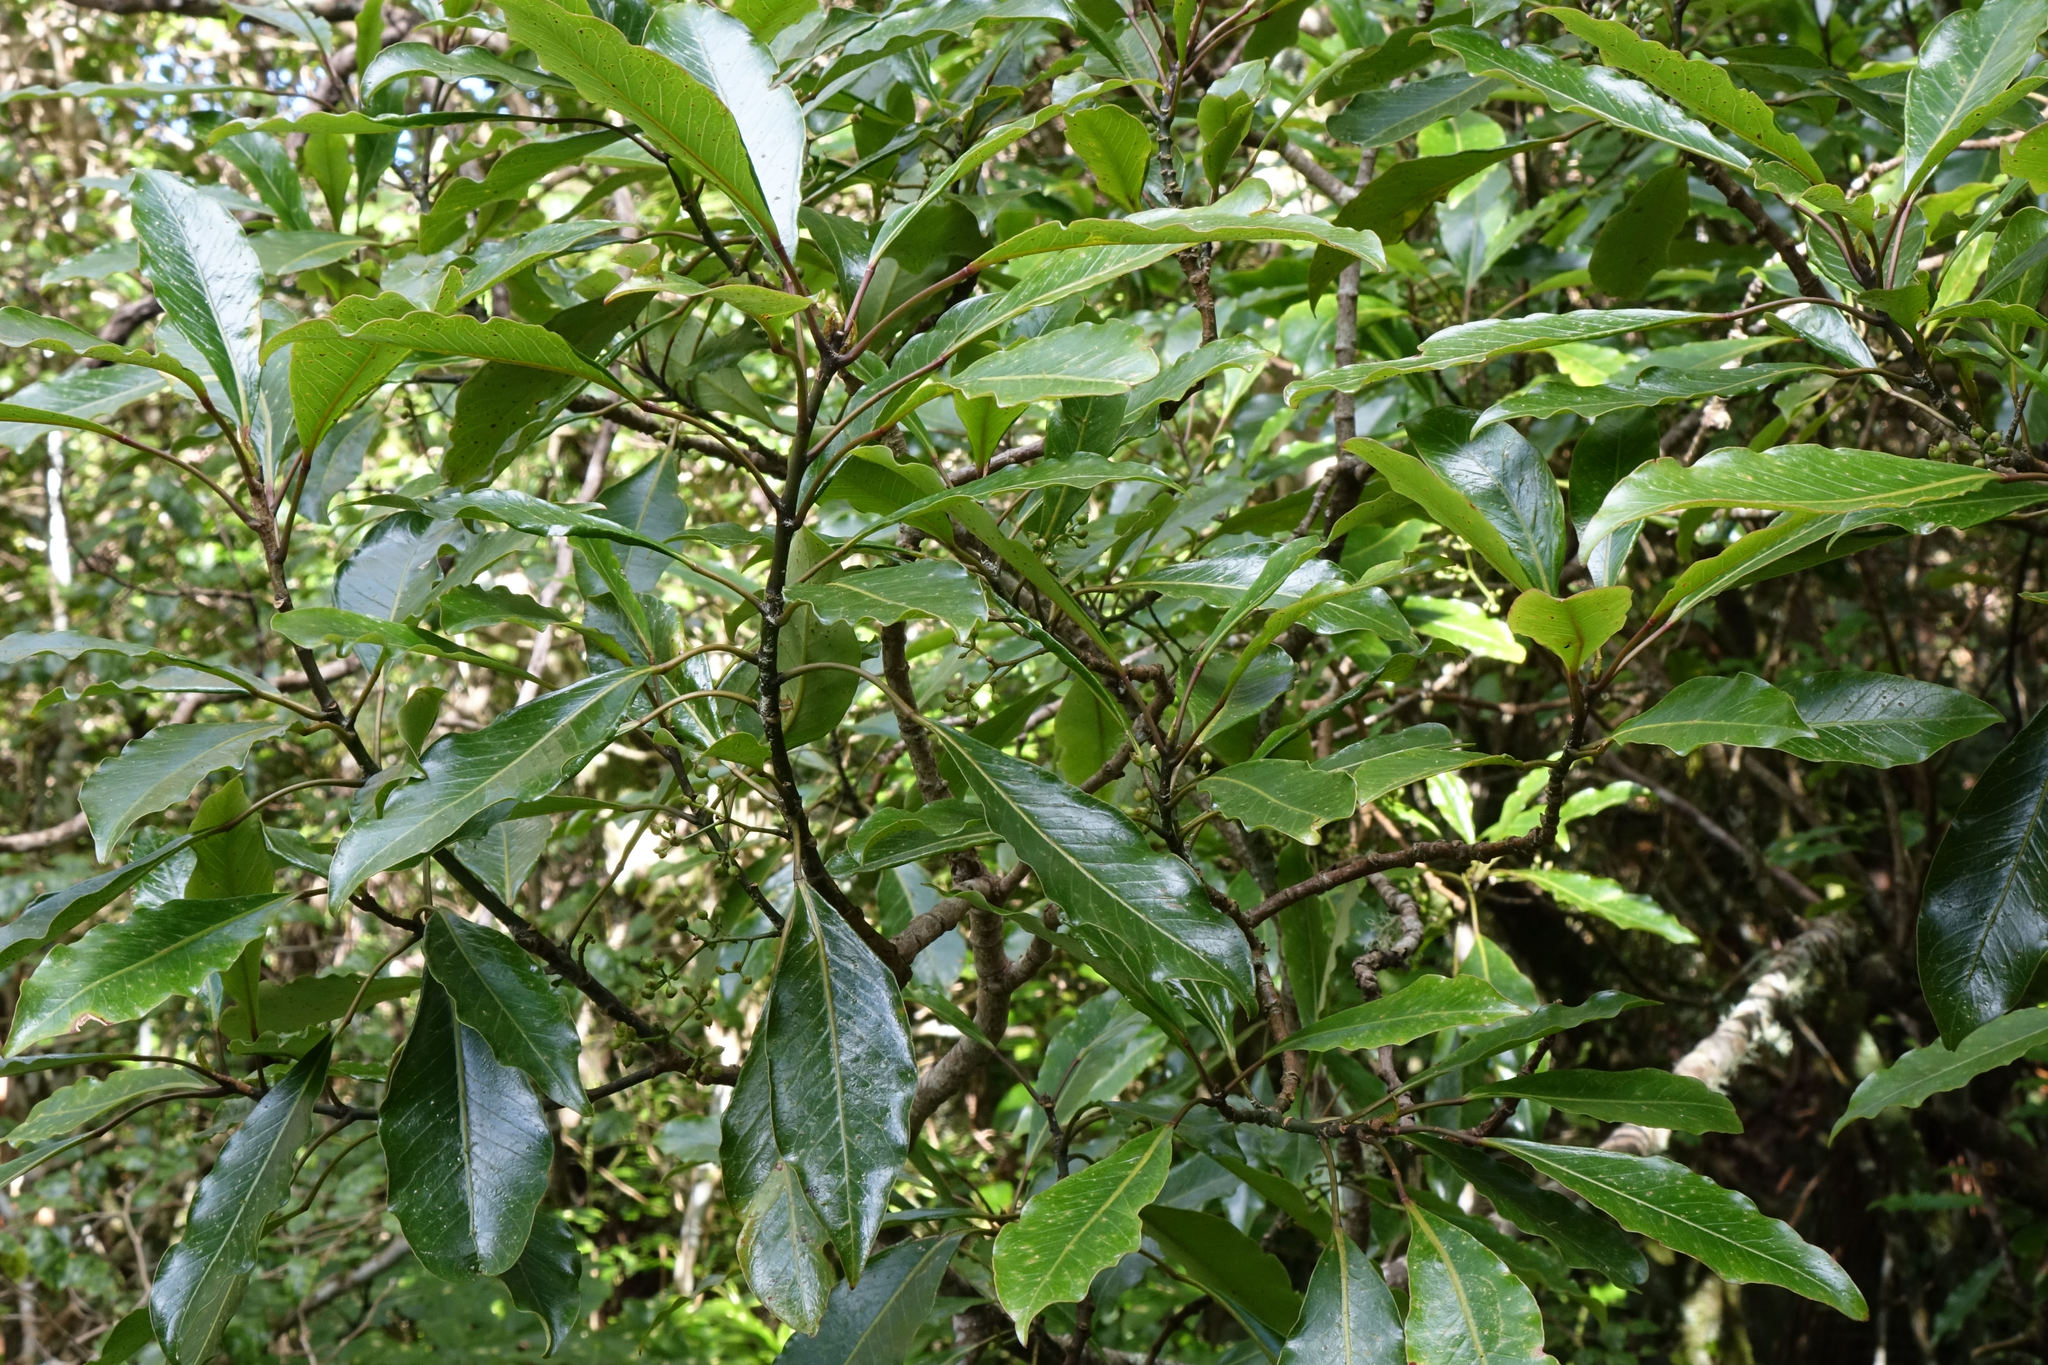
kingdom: Plantae
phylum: Tracheophyta
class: Magnoliopsida
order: Apiales
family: Araliaceae
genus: Raukaua
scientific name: Raukaua edgerleyi
